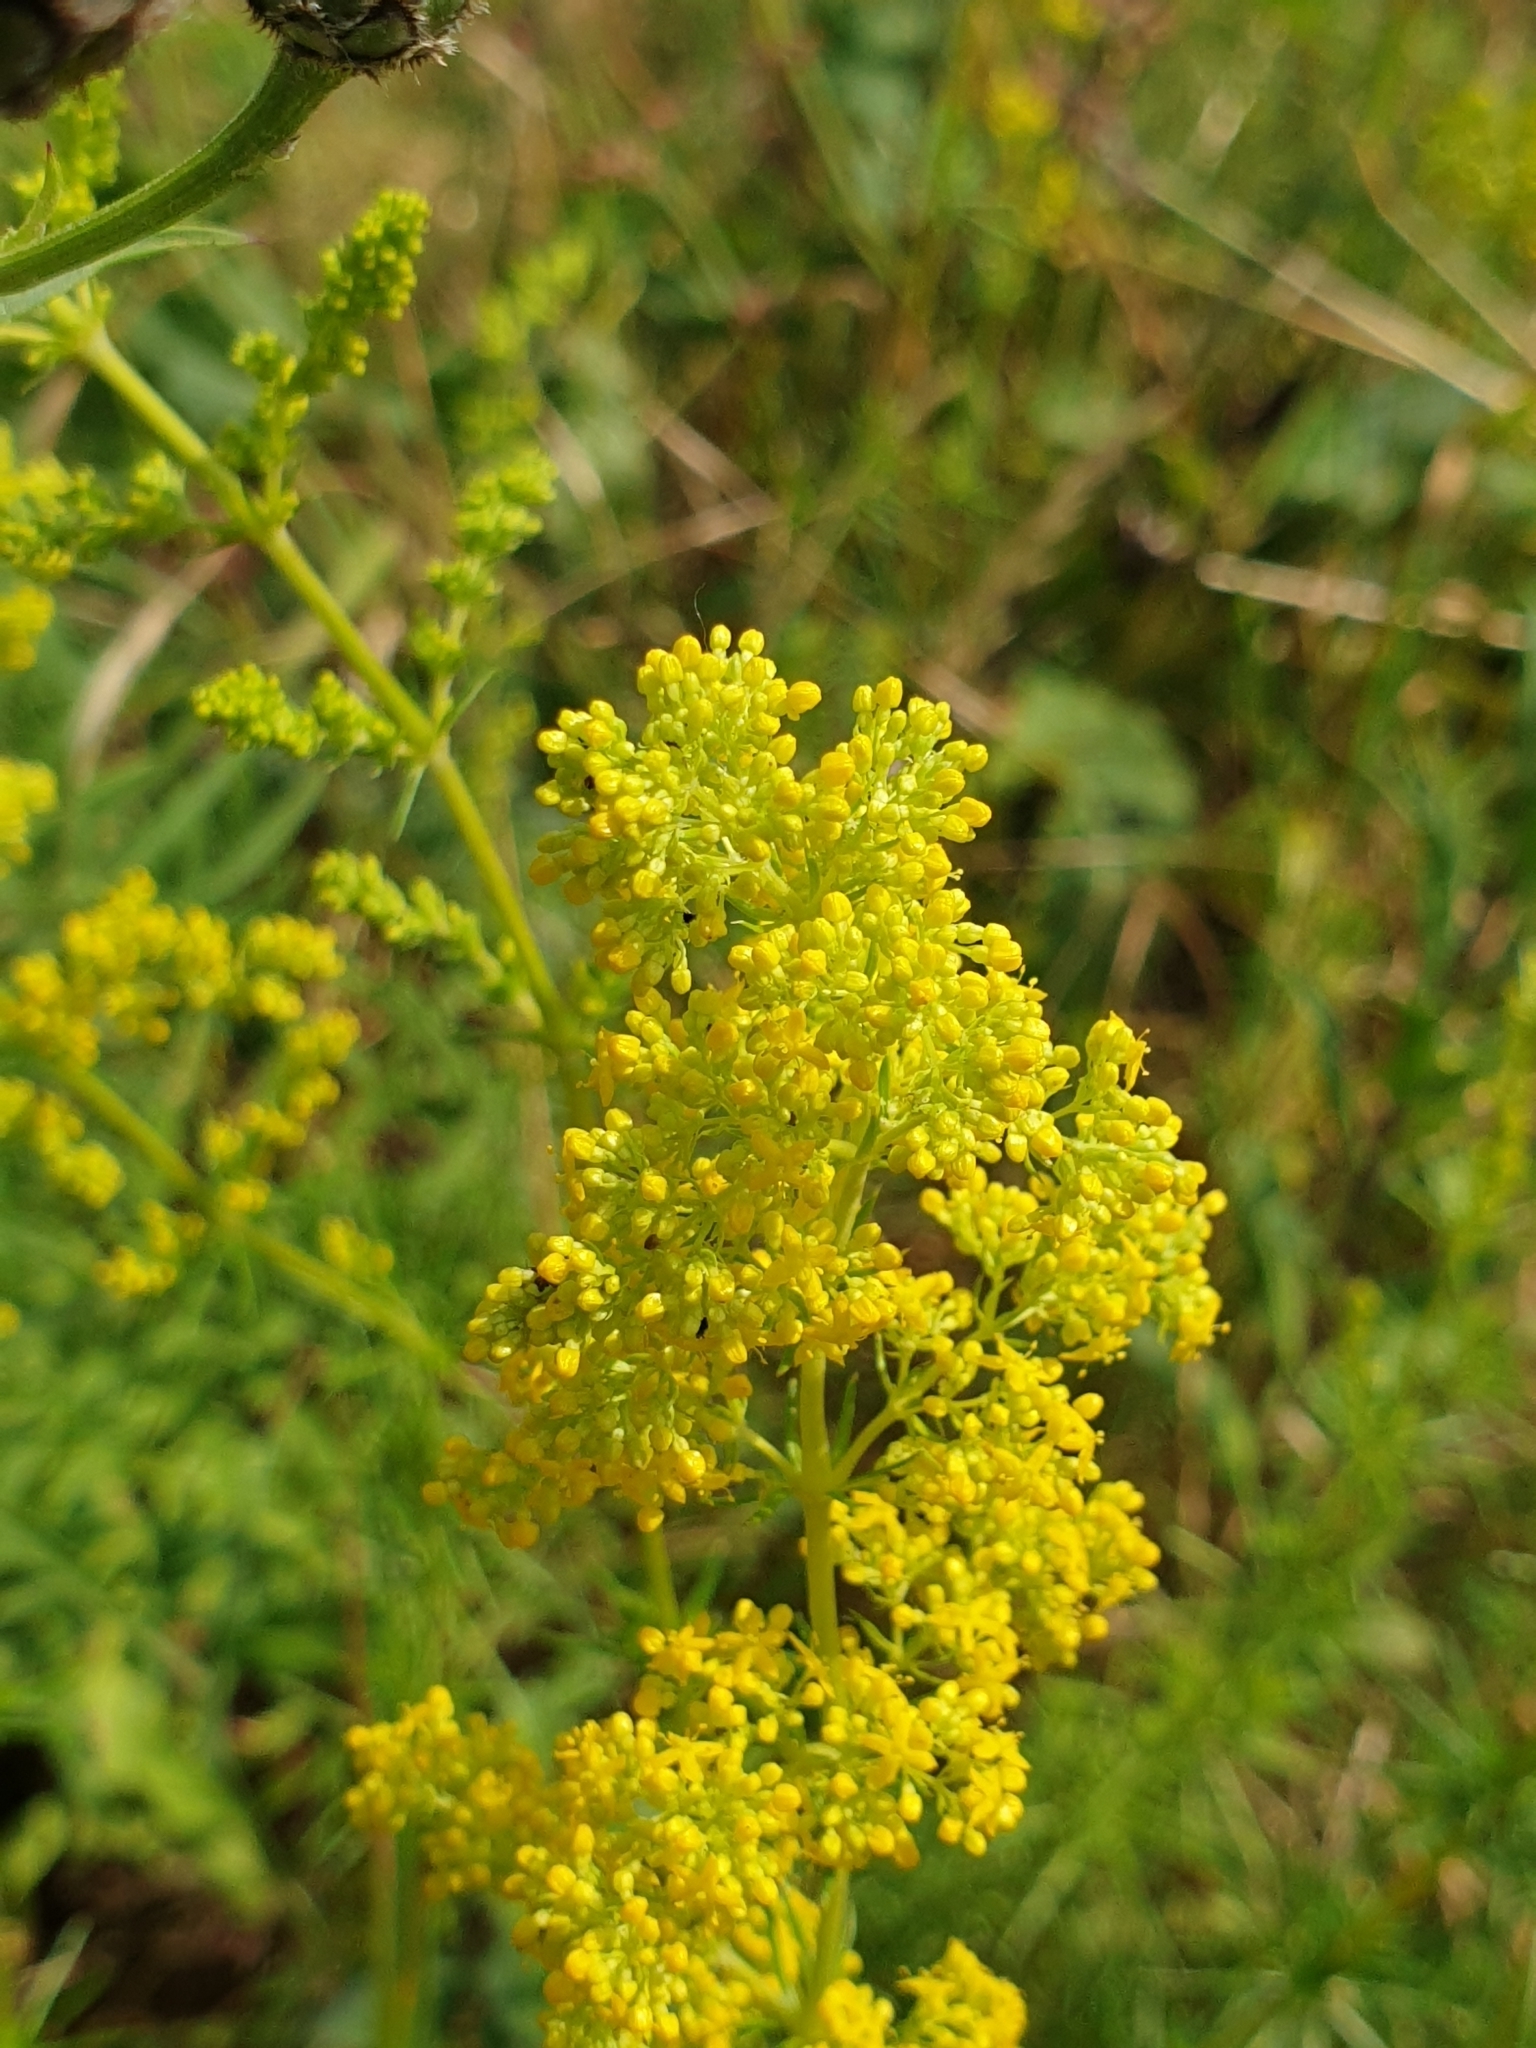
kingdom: Plantae
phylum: Tracheophyta
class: Magnoliopsida
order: Gentianales
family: Rubiaceae
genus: Galium
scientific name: Galium verum
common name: Lady's bedstraw
